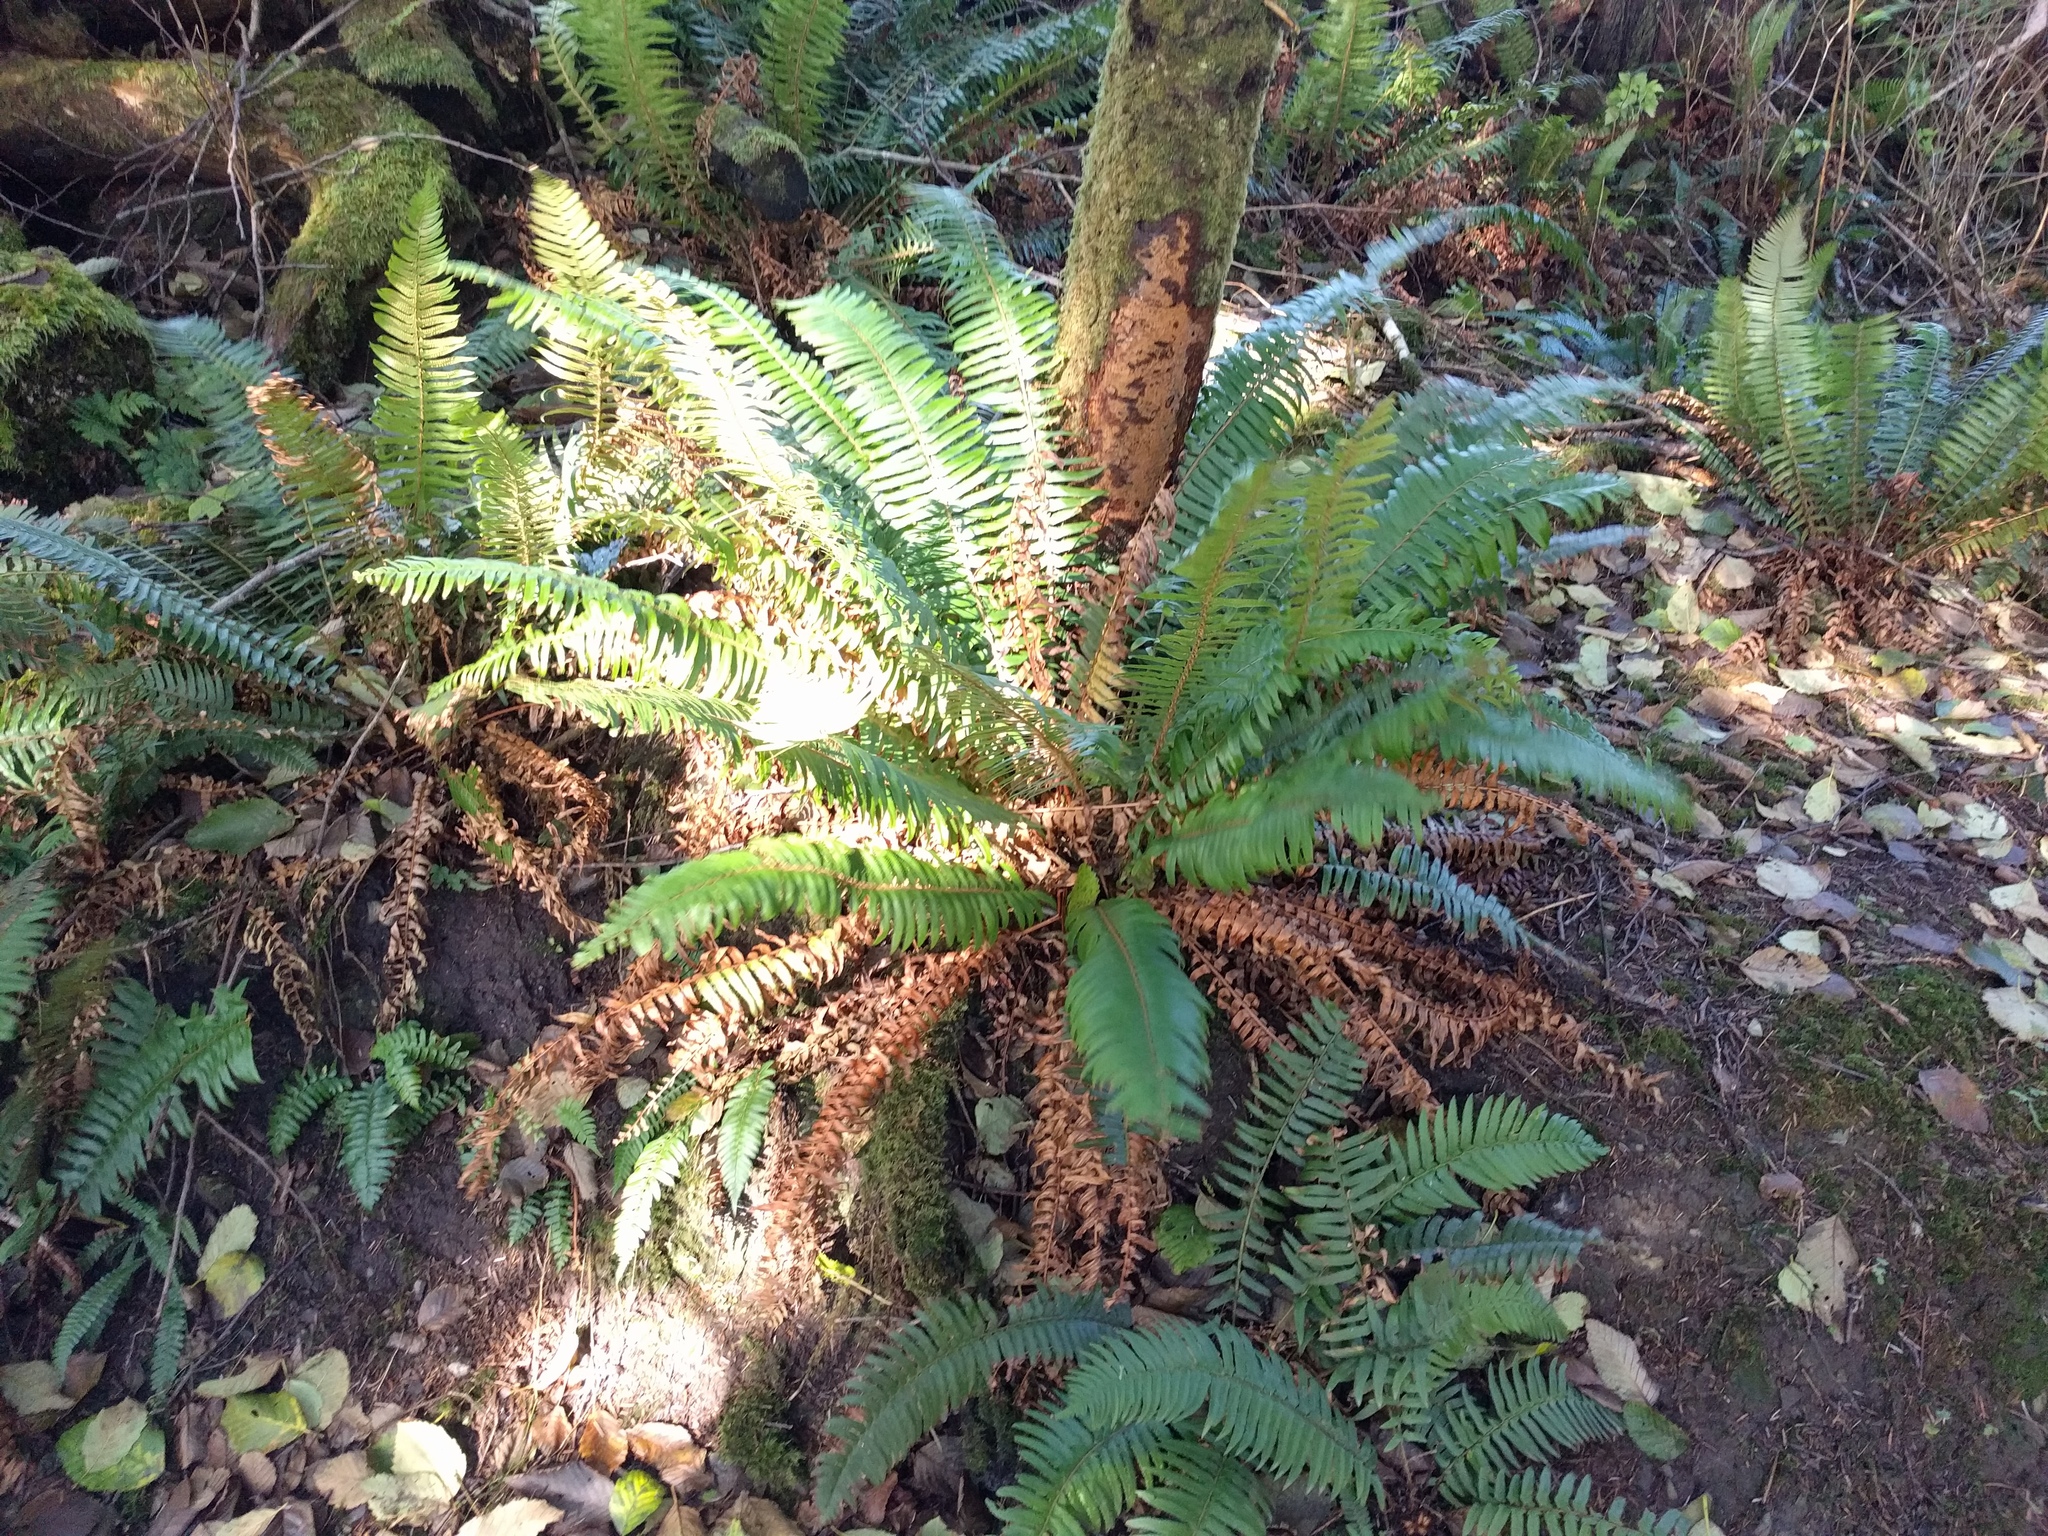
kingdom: Plantae
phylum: Tracheophyta
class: Polypodiopsida
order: Polypodiales
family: Dryopteridaceae
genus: Polystichum
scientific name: Polystichum munitum
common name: Western sword-fern
